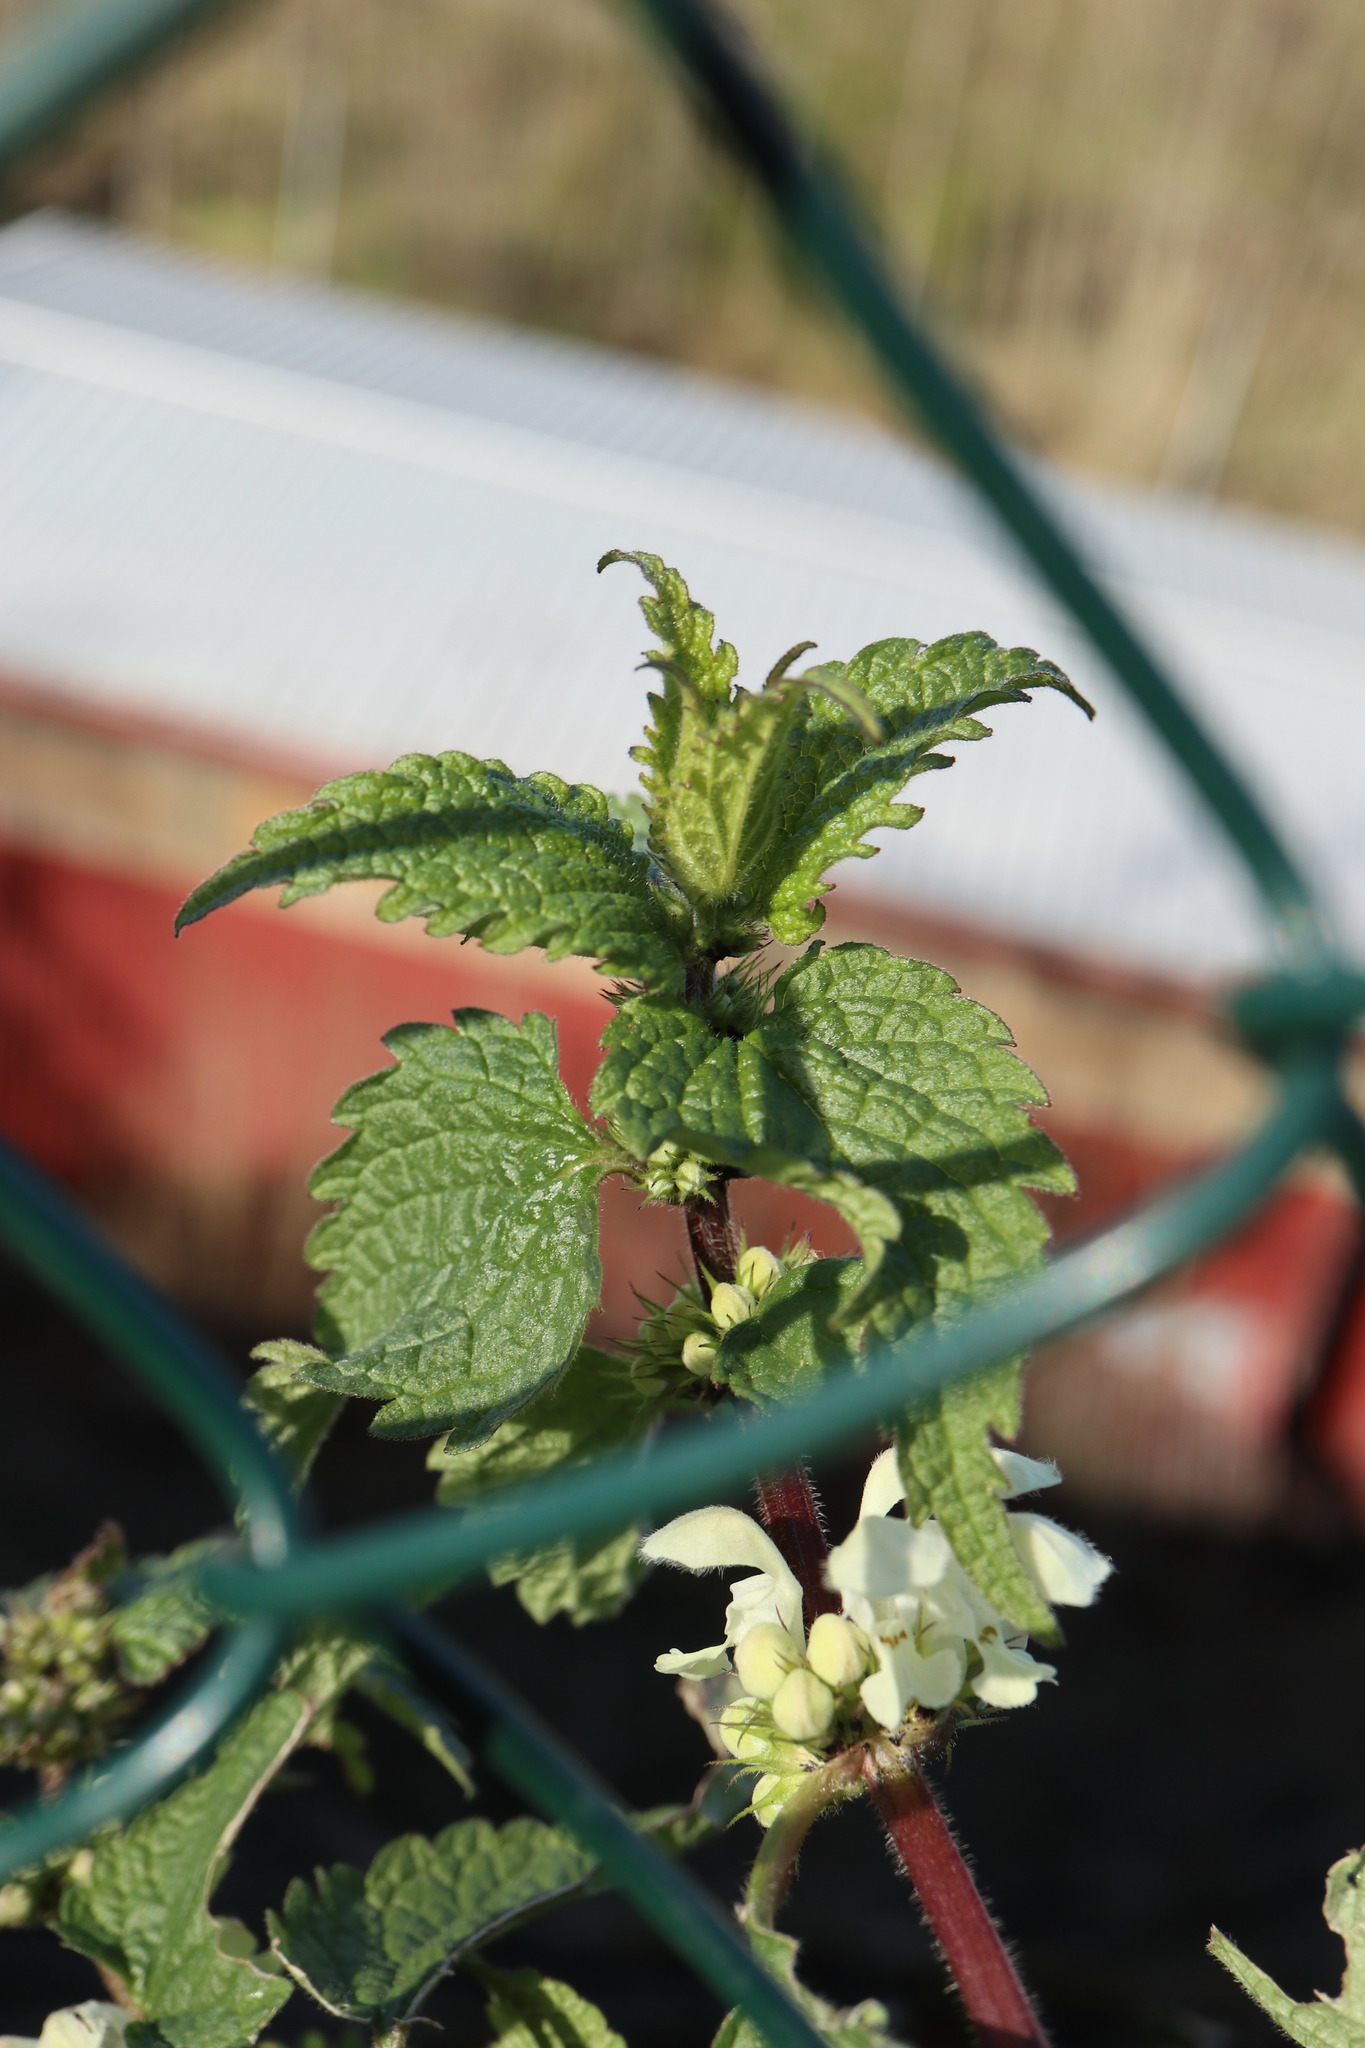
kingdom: Plantae
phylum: Tracheophyta
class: Magnoliopsida
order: Lamiales
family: Lamiaceae
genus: Lamium
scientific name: Lamium album
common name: White dead-nettle
